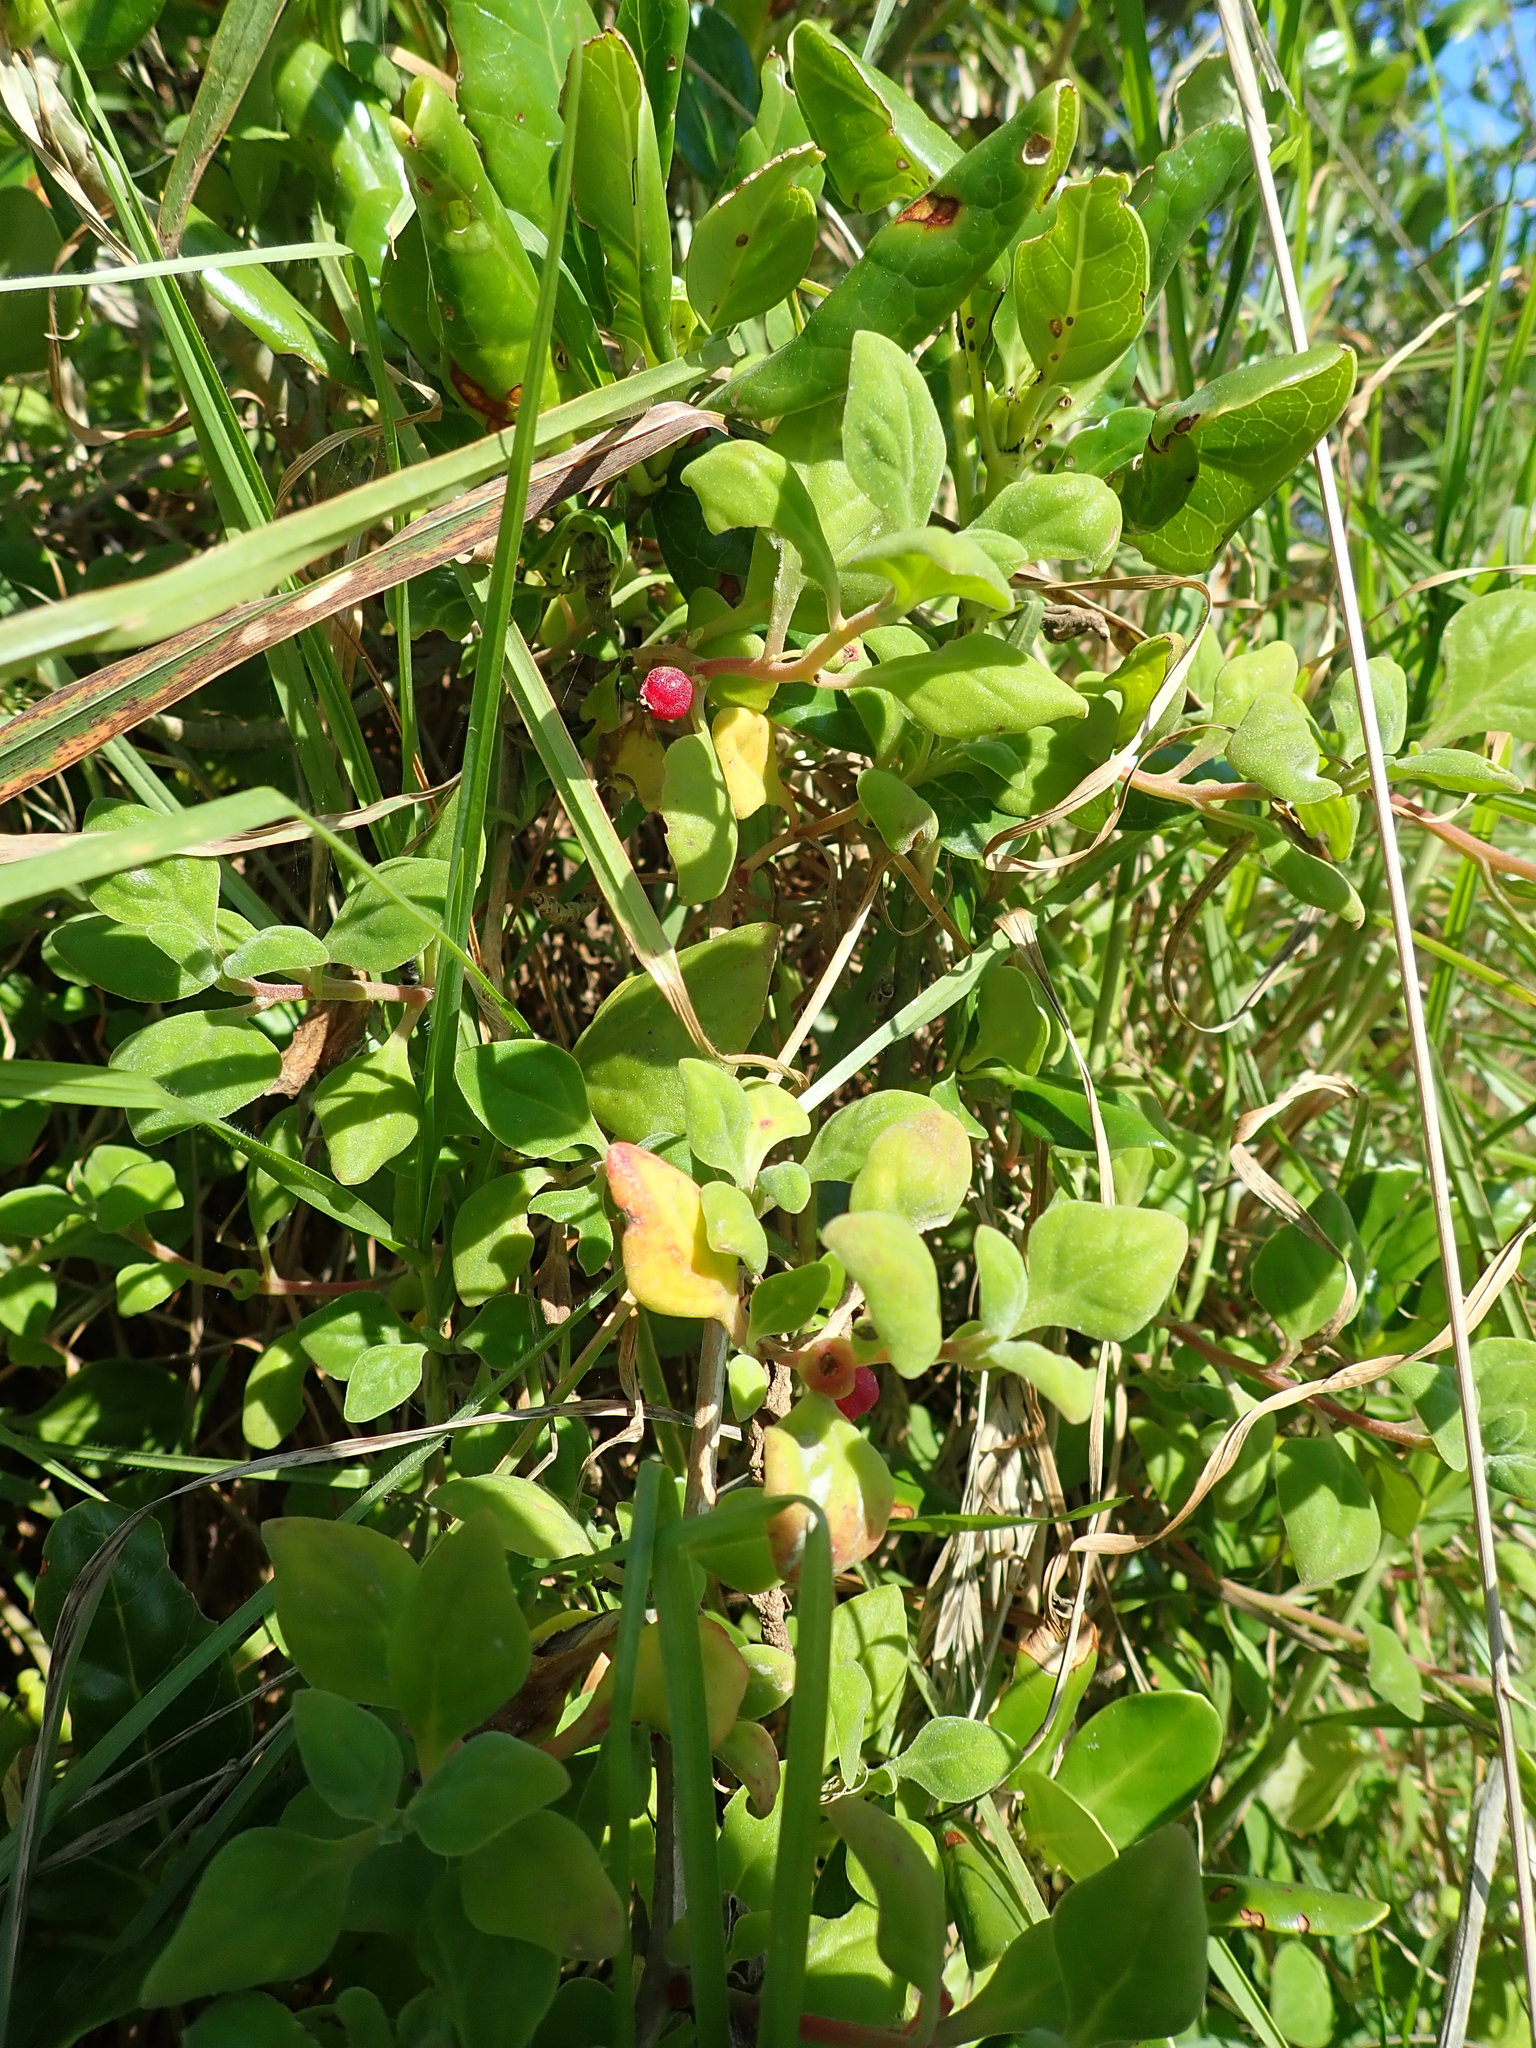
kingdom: Plantae
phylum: Tracheophyta
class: Magnoliopsida
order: Caryophyllales
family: Aizoaceae
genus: Tetragonia
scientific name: Tetragonia implexicoma
